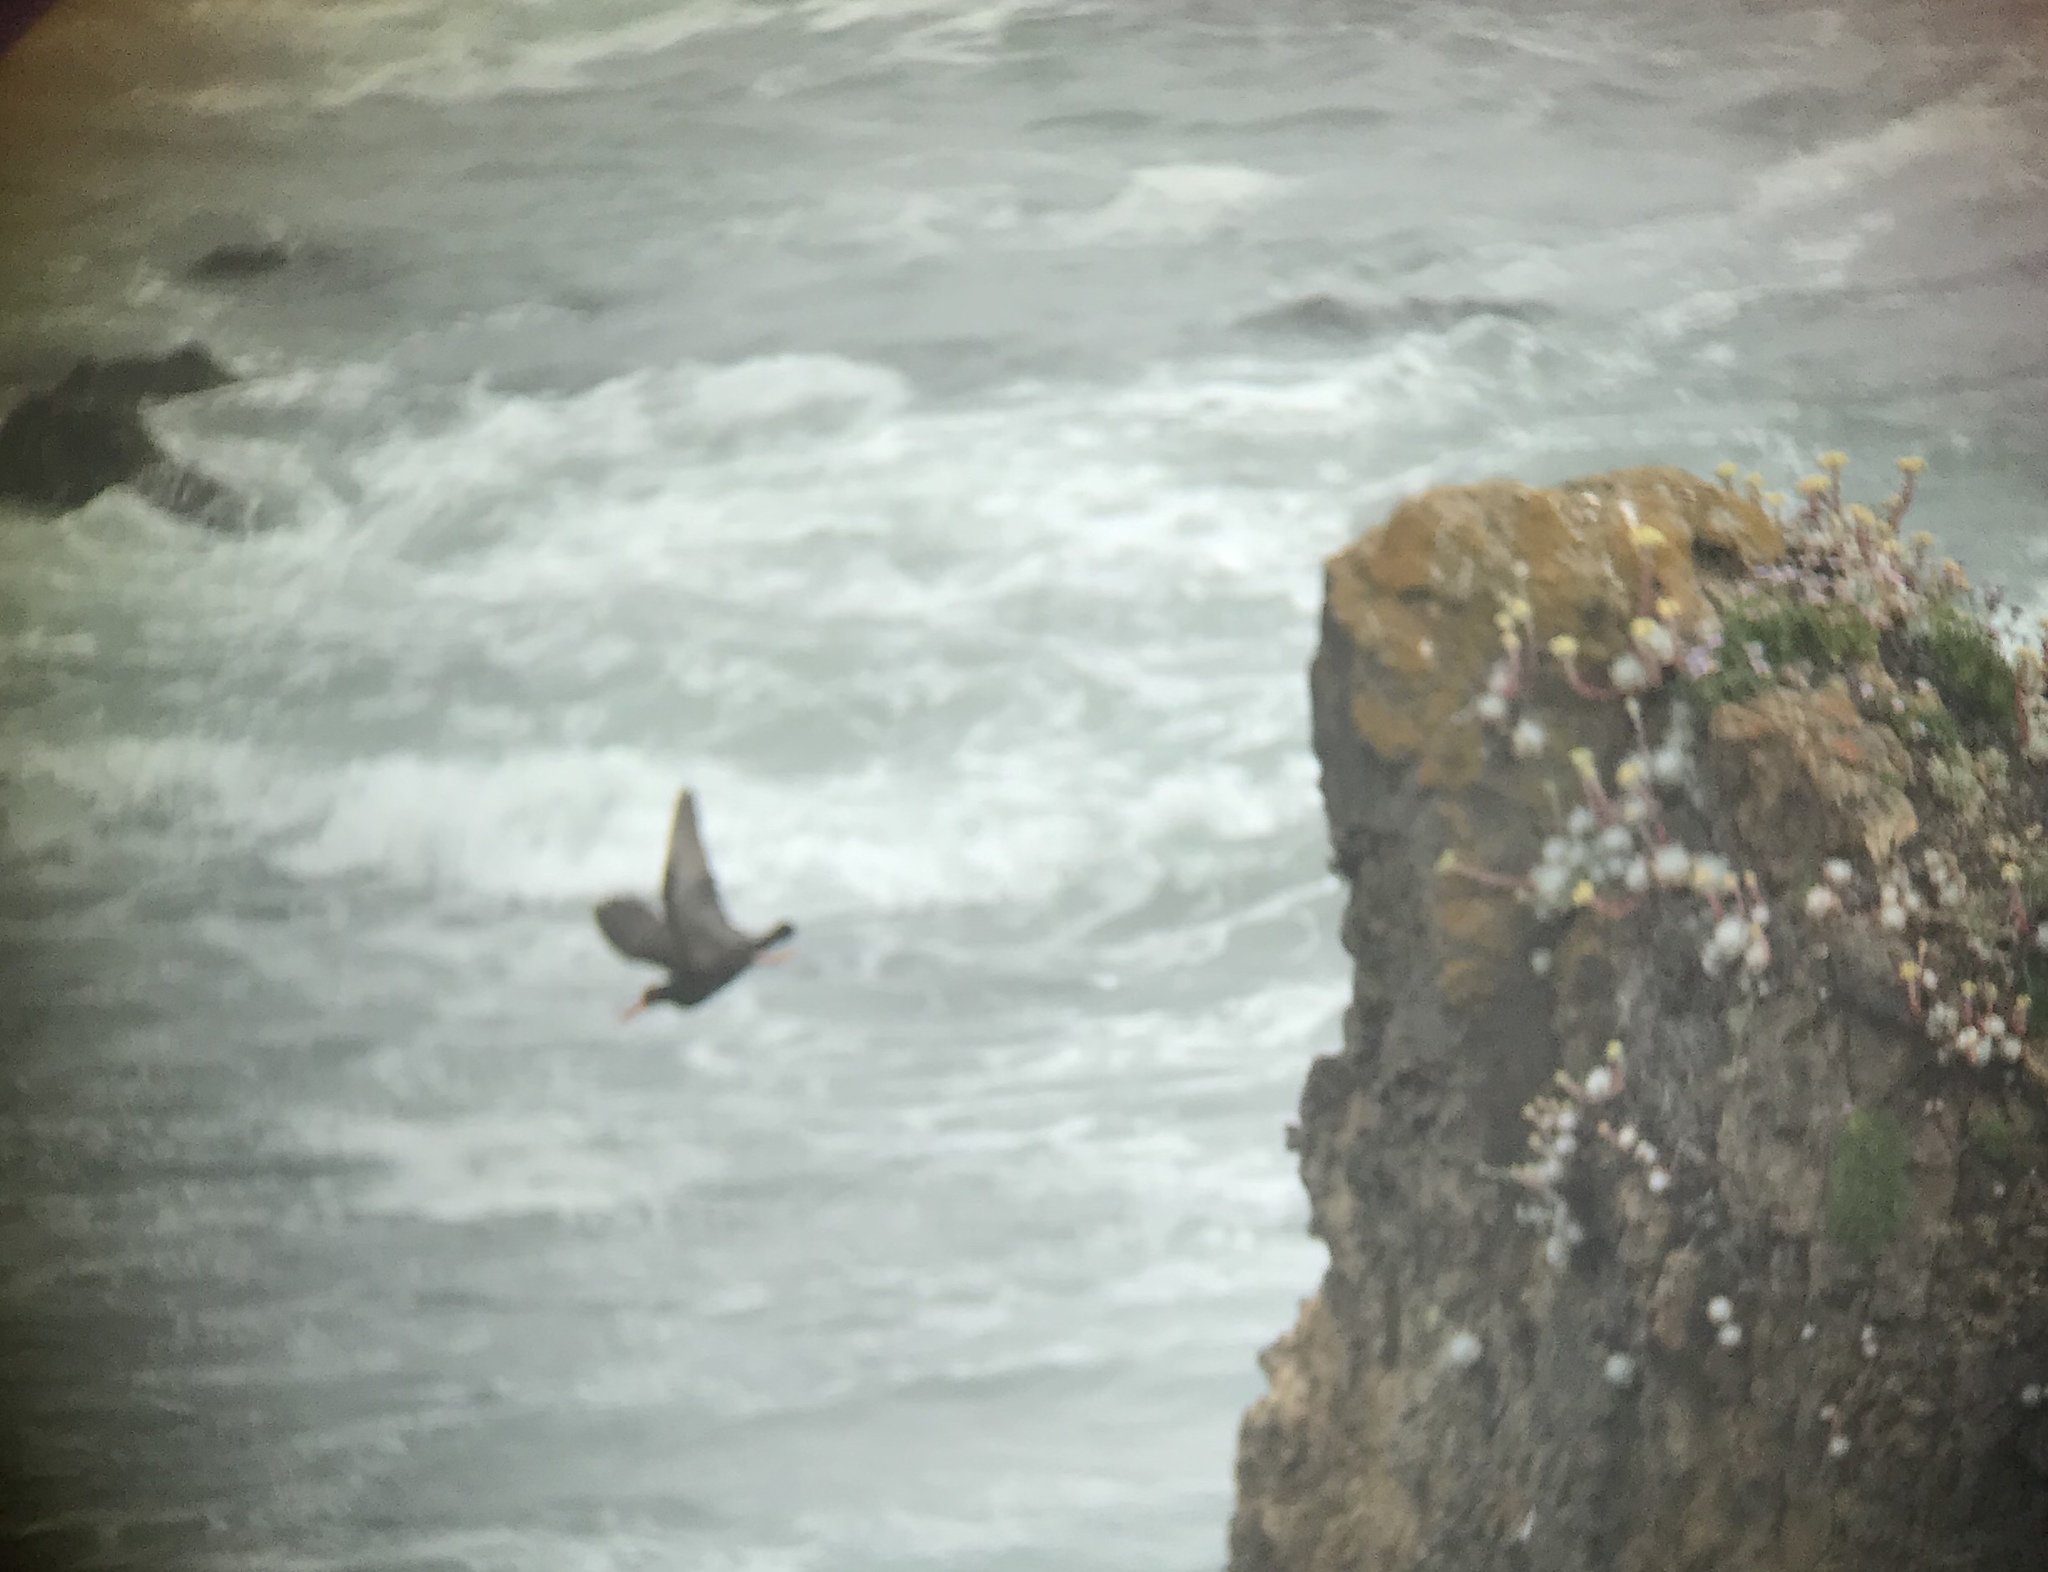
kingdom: Animalia
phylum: Chordata
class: Aves
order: Charadriiformes
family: Haematopodidae
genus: Haematopus
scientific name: Haematopus bachmani
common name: Black oystercatcher
